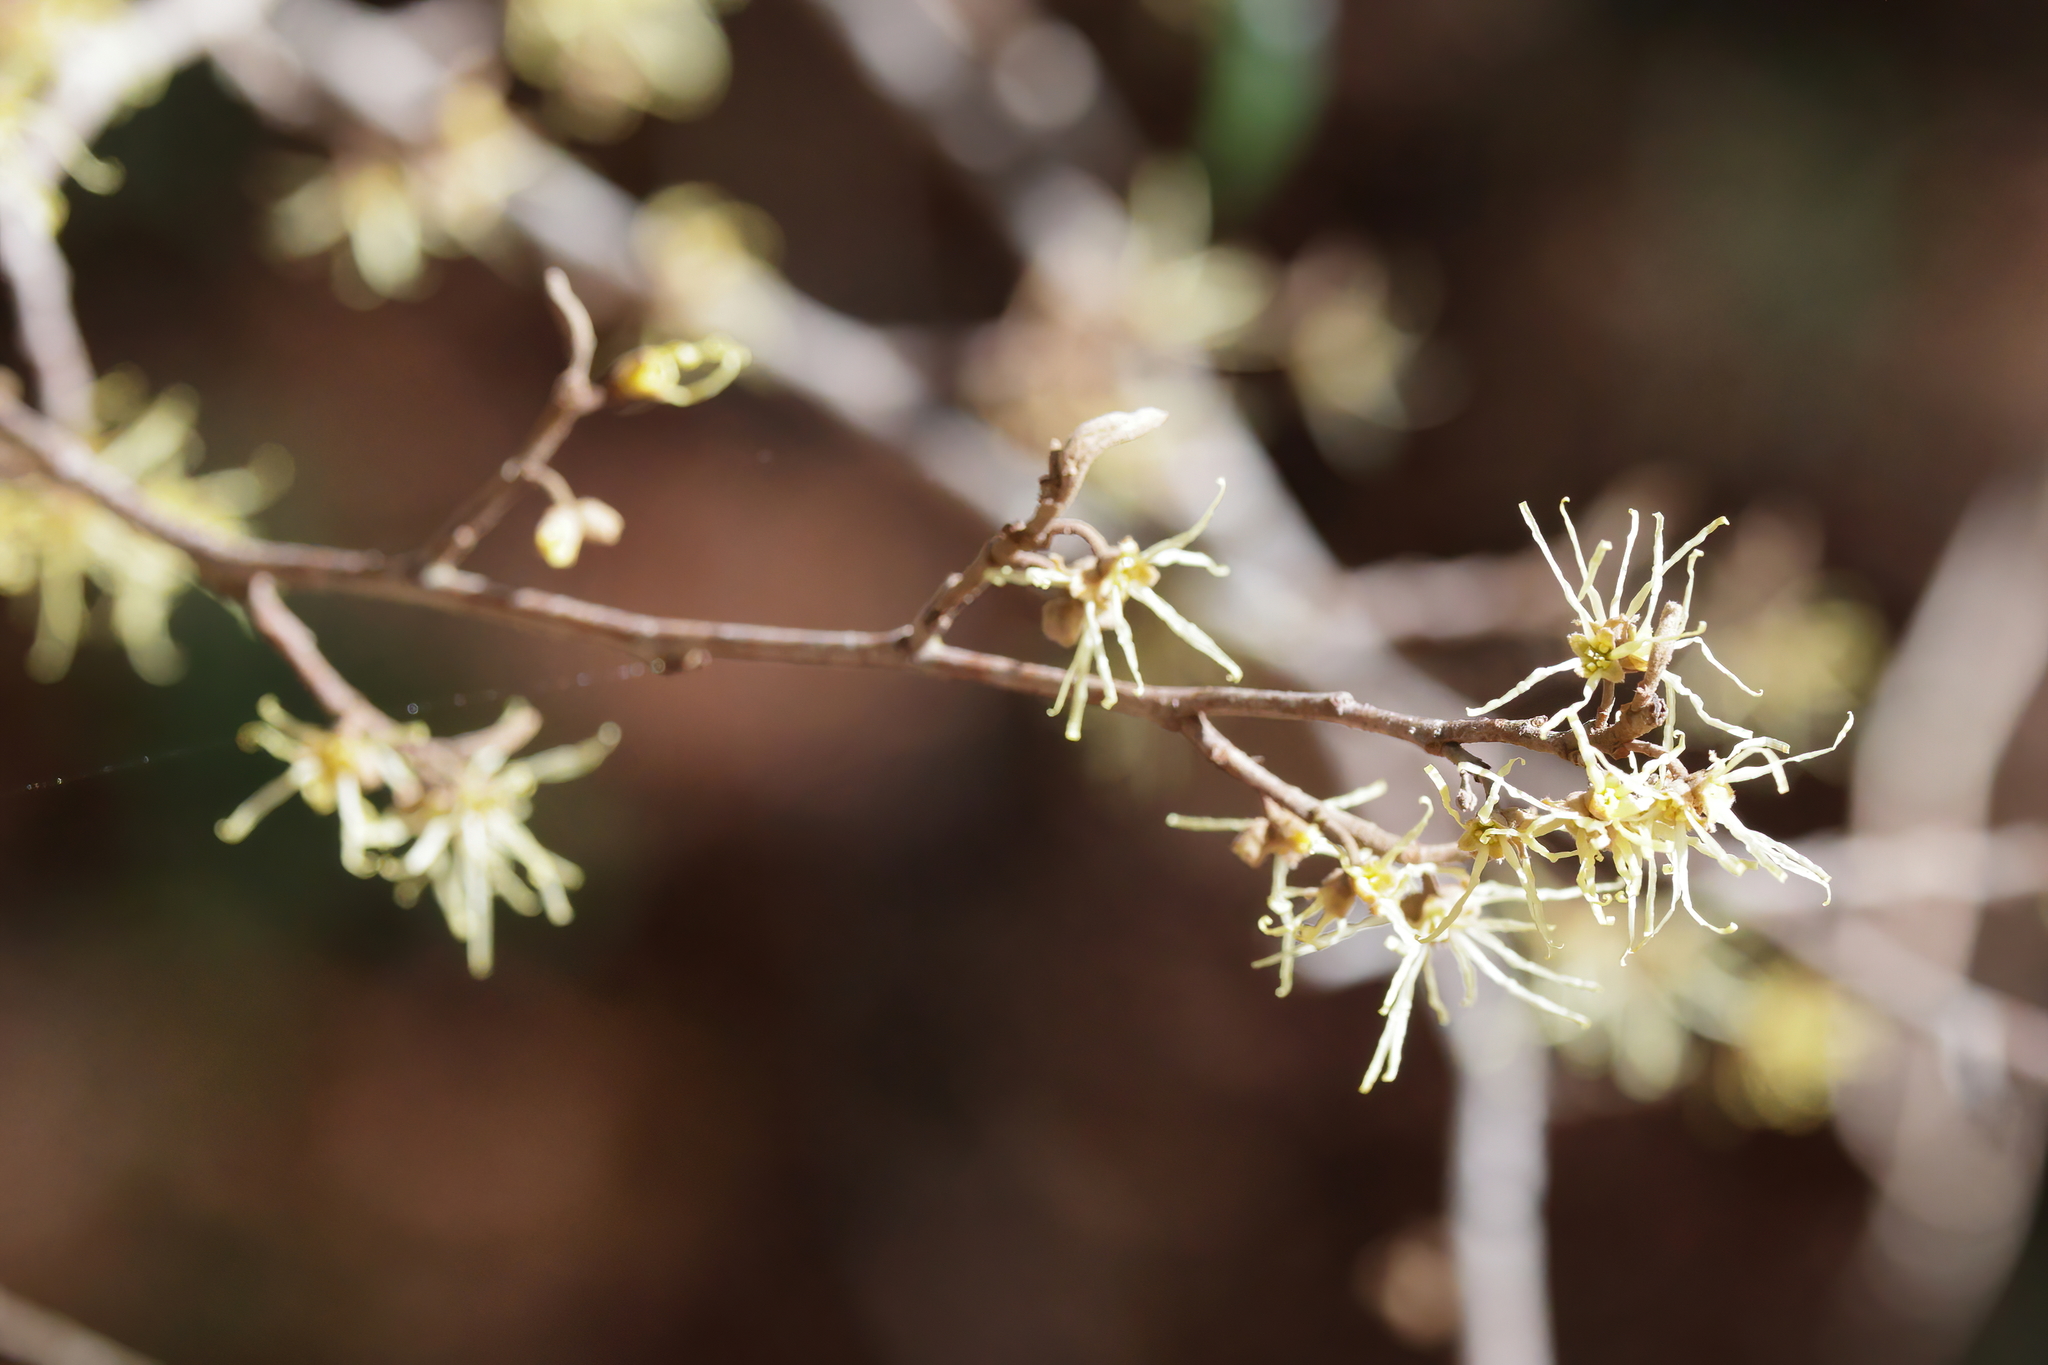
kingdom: Plantae
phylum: Tracheophyta
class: Magnoliopsida
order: Saxifragales
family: Hamamelidaceae
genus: Hamamelis
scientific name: Hamamelis virginiana
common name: Witch-hazel
